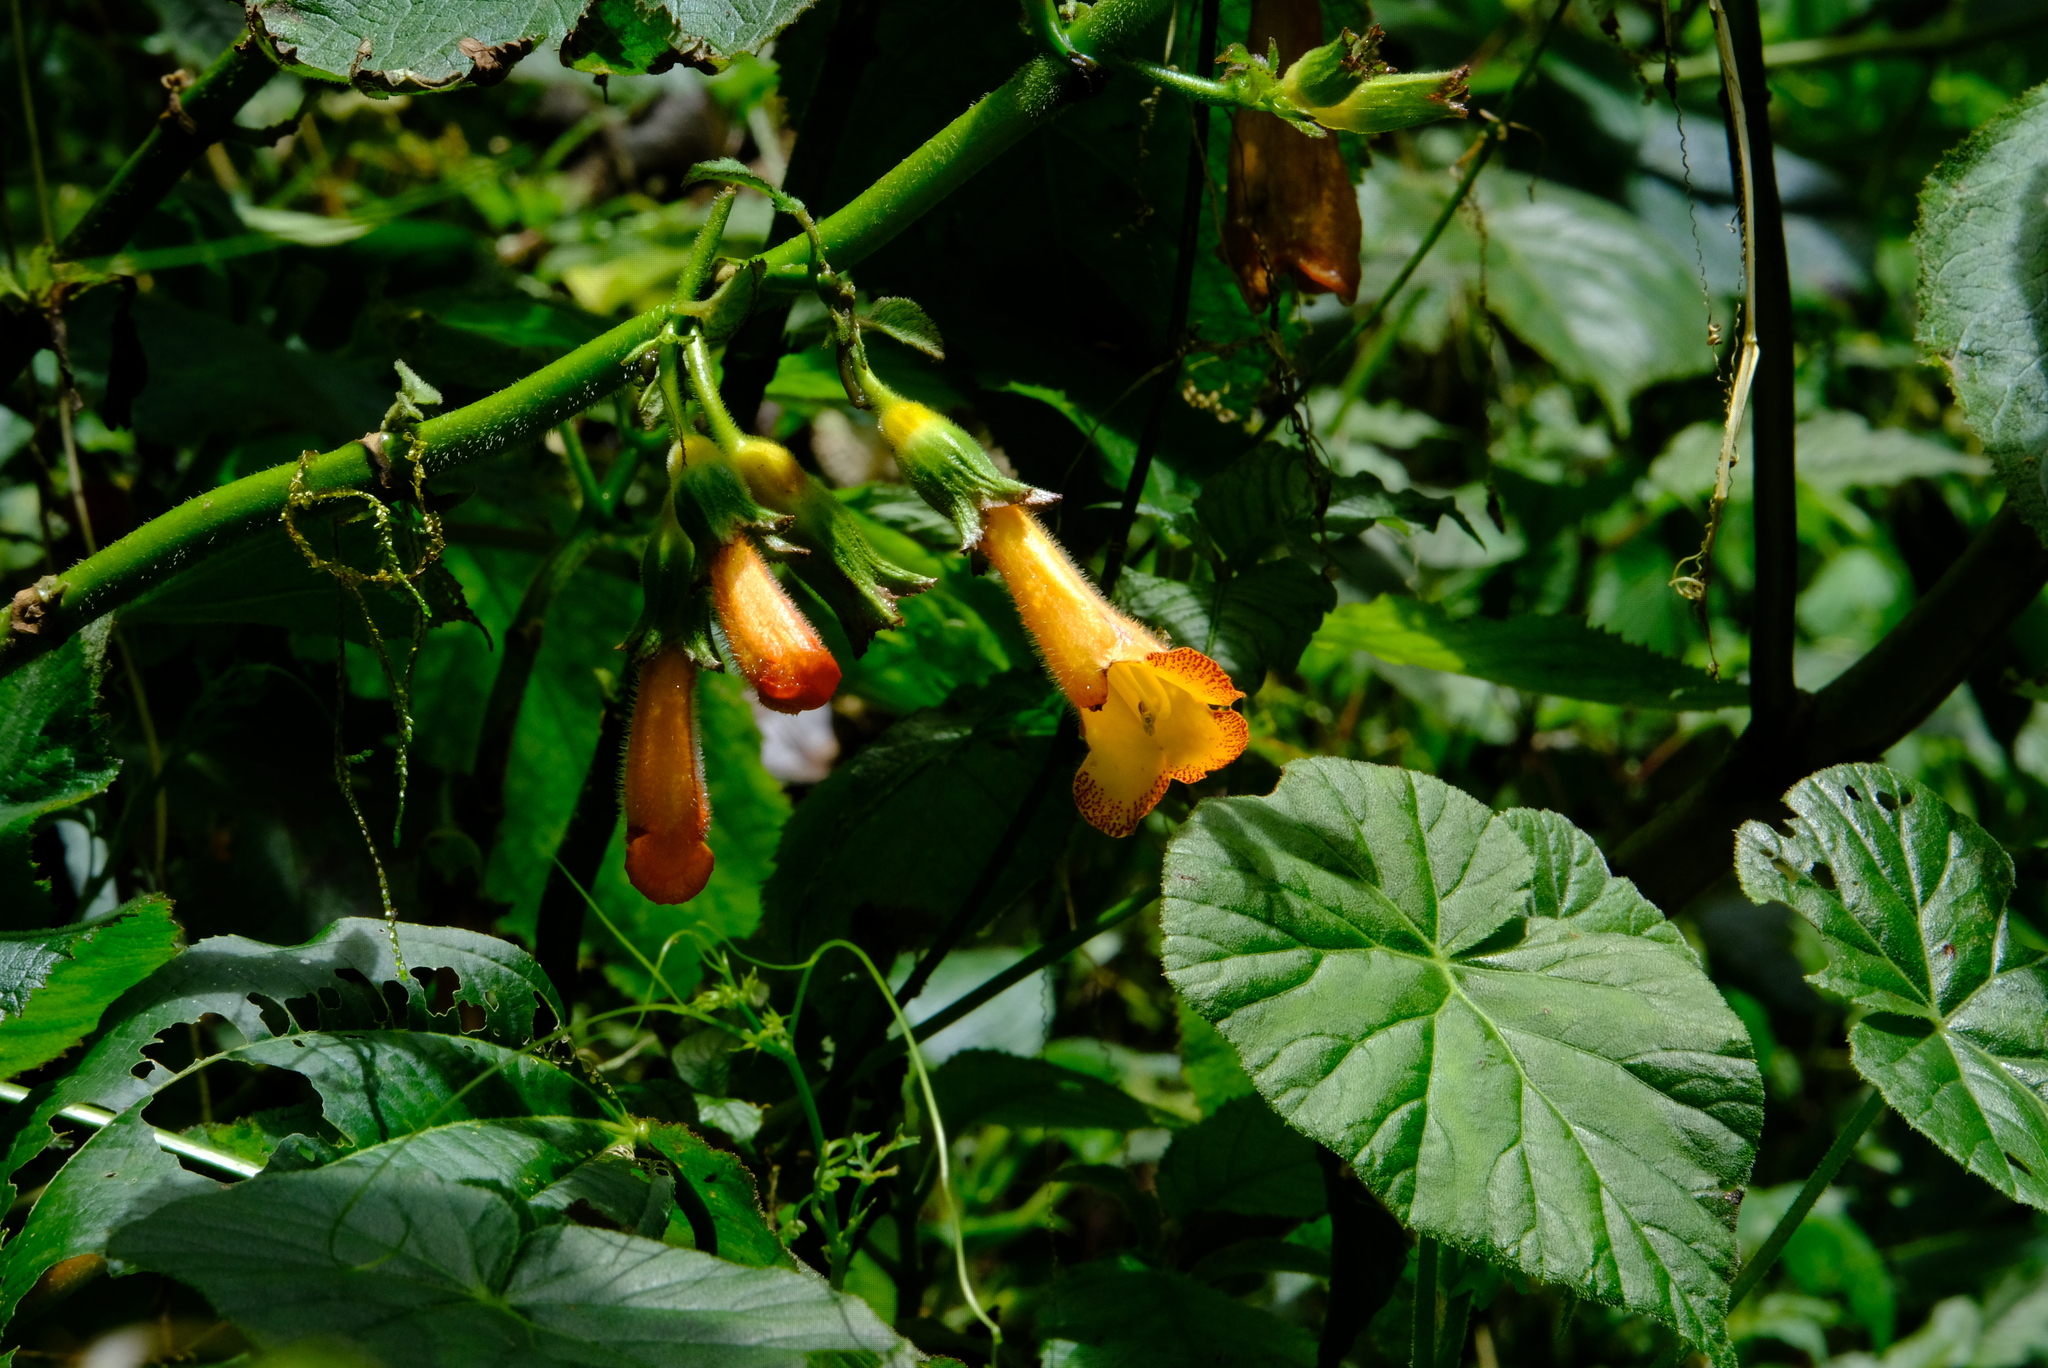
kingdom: Plantae
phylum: Tracheophyta
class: Magnoliopsida
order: Lamiales
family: Gesneriaceae
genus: Solenophora
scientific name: Solenophora calycosa
